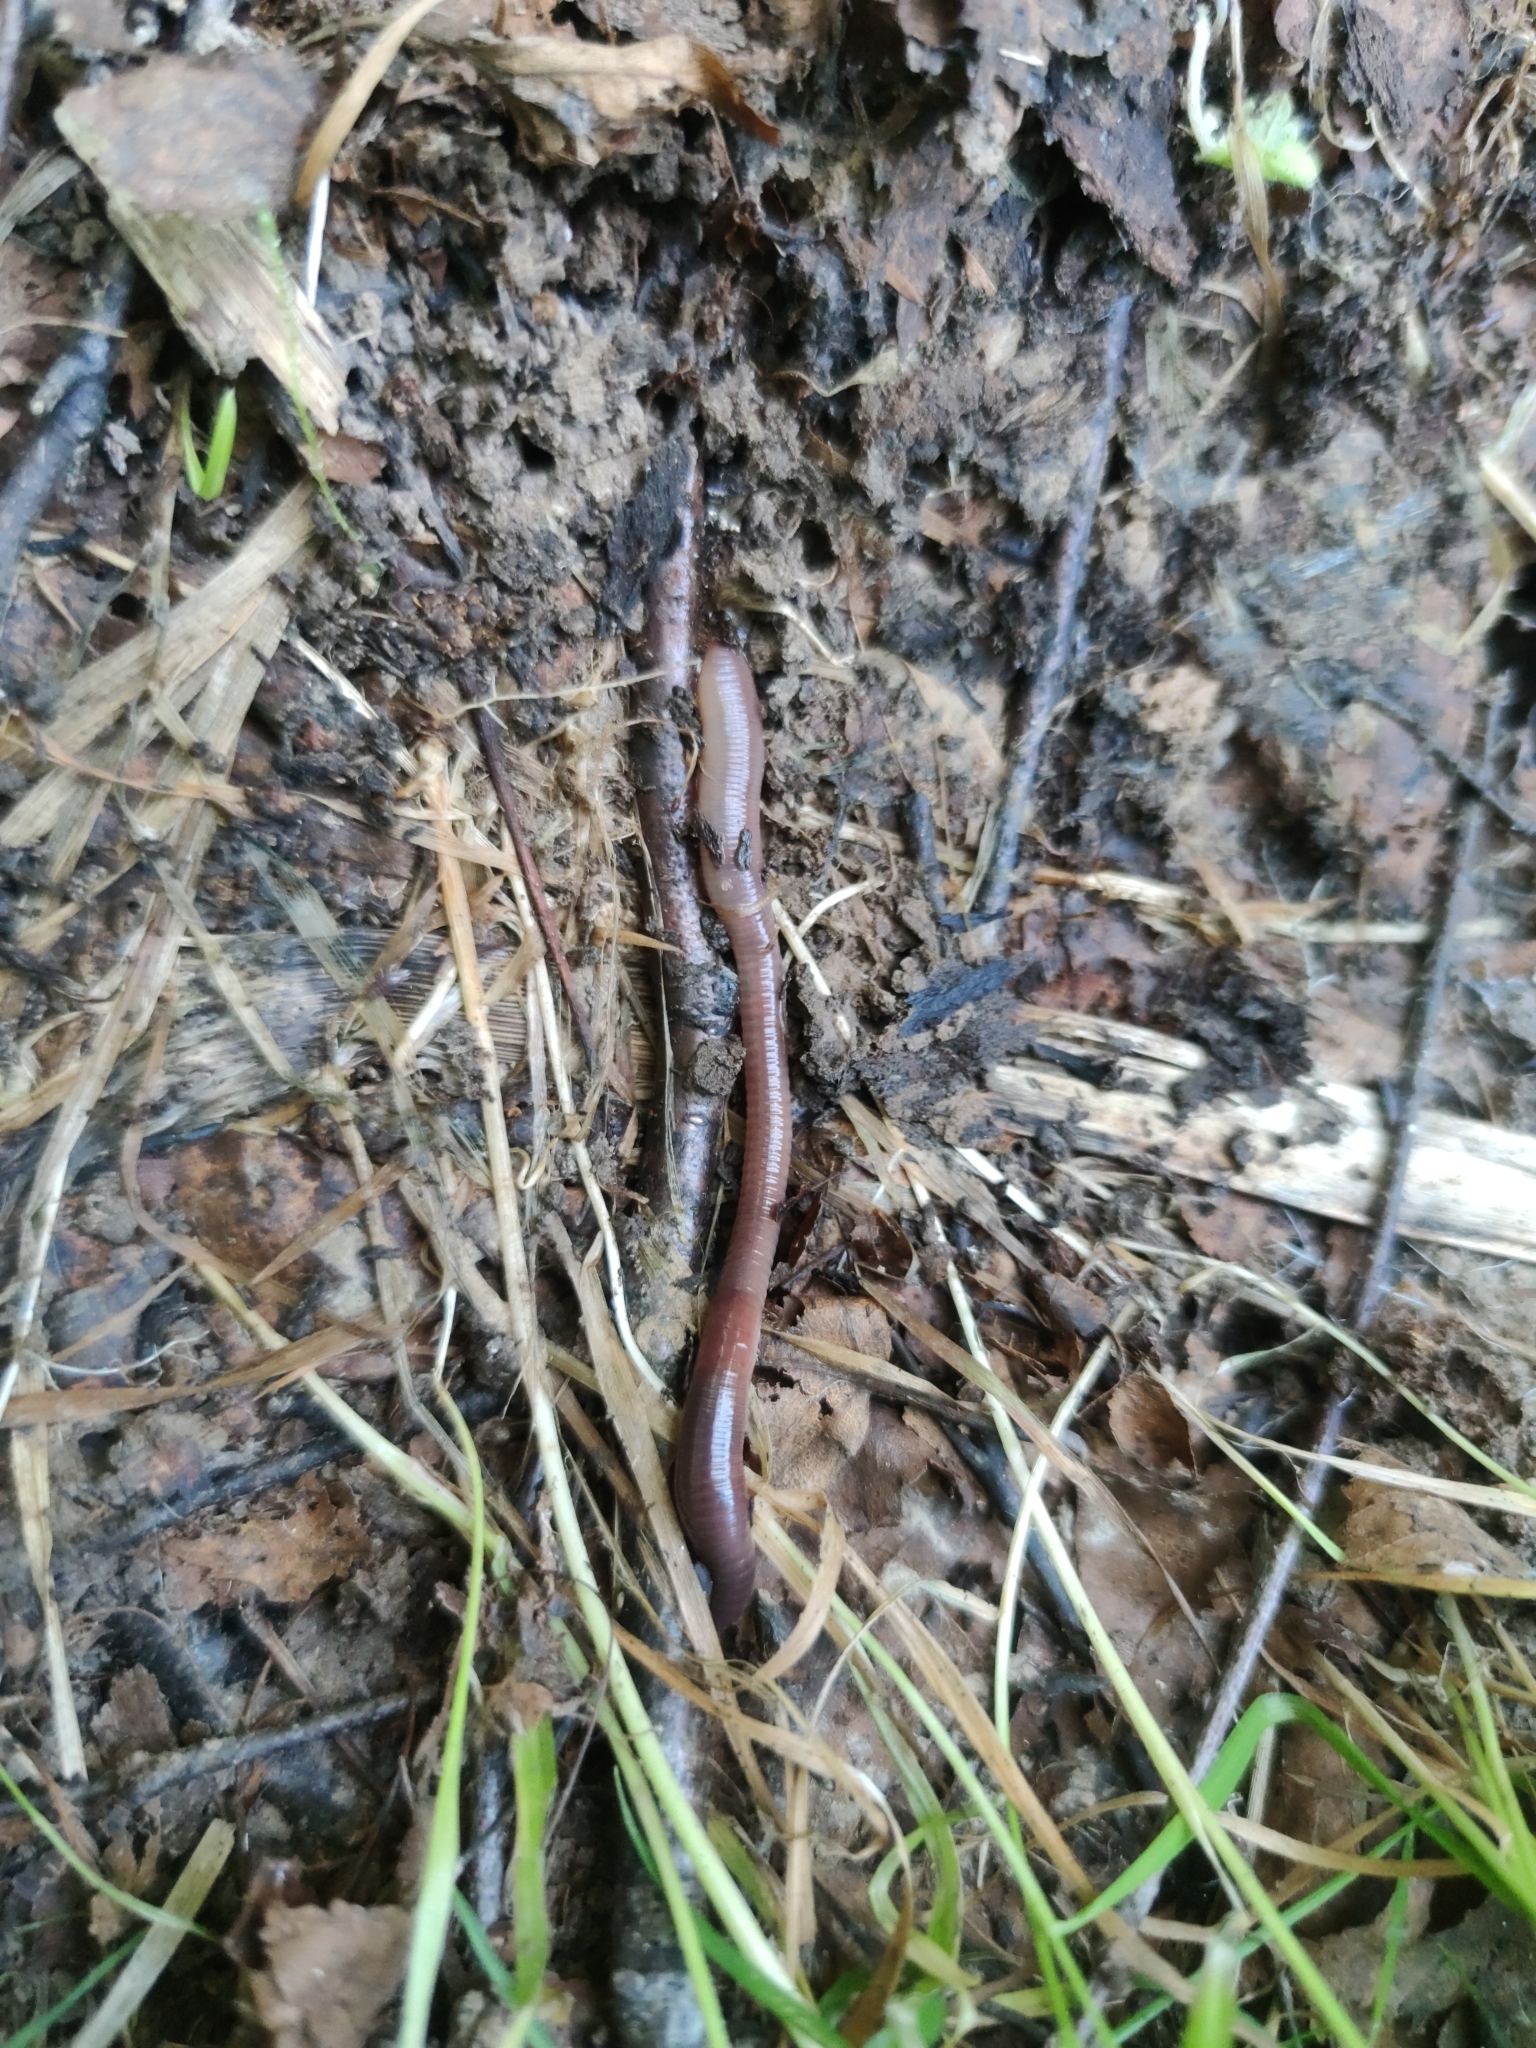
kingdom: Animalia
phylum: Annelida
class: Clitellata
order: Crassiclitellata
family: Lumbricidae
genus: Lumbricus
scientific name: Lumbricus terrestris
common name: Common earthworm
